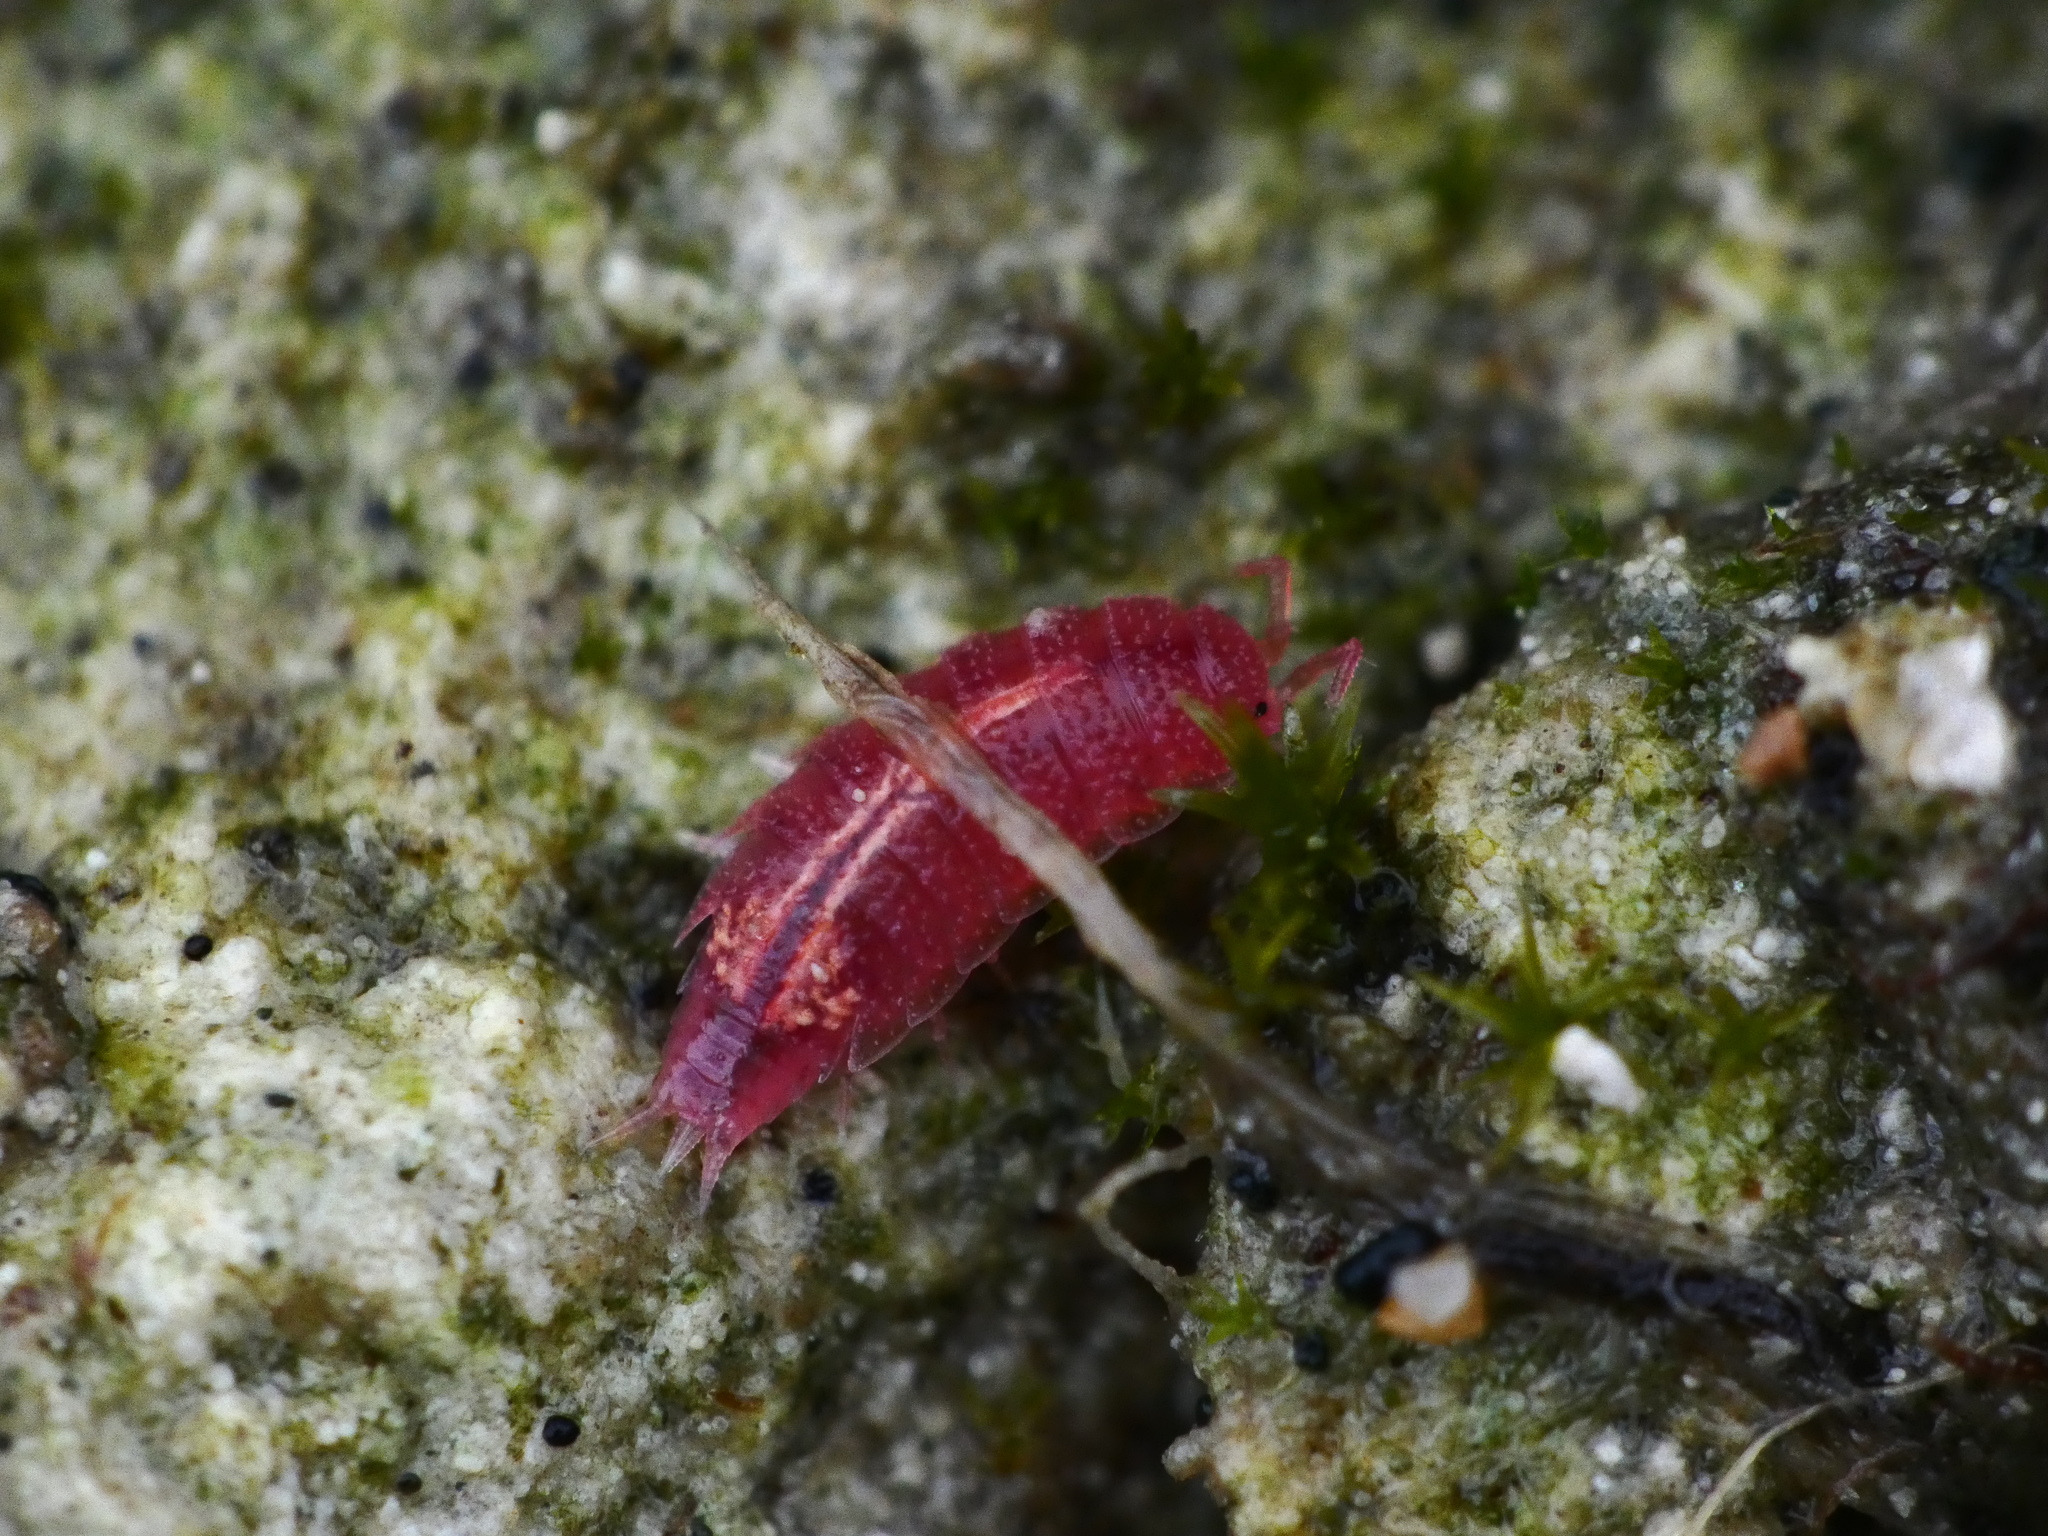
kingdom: Animalia
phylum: Arthropoda
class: Malacostraca
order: Isopoda
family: Trichoniscidae
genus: Androniscus
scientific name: Androniscus dentiger
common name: Rosy woodlouse
